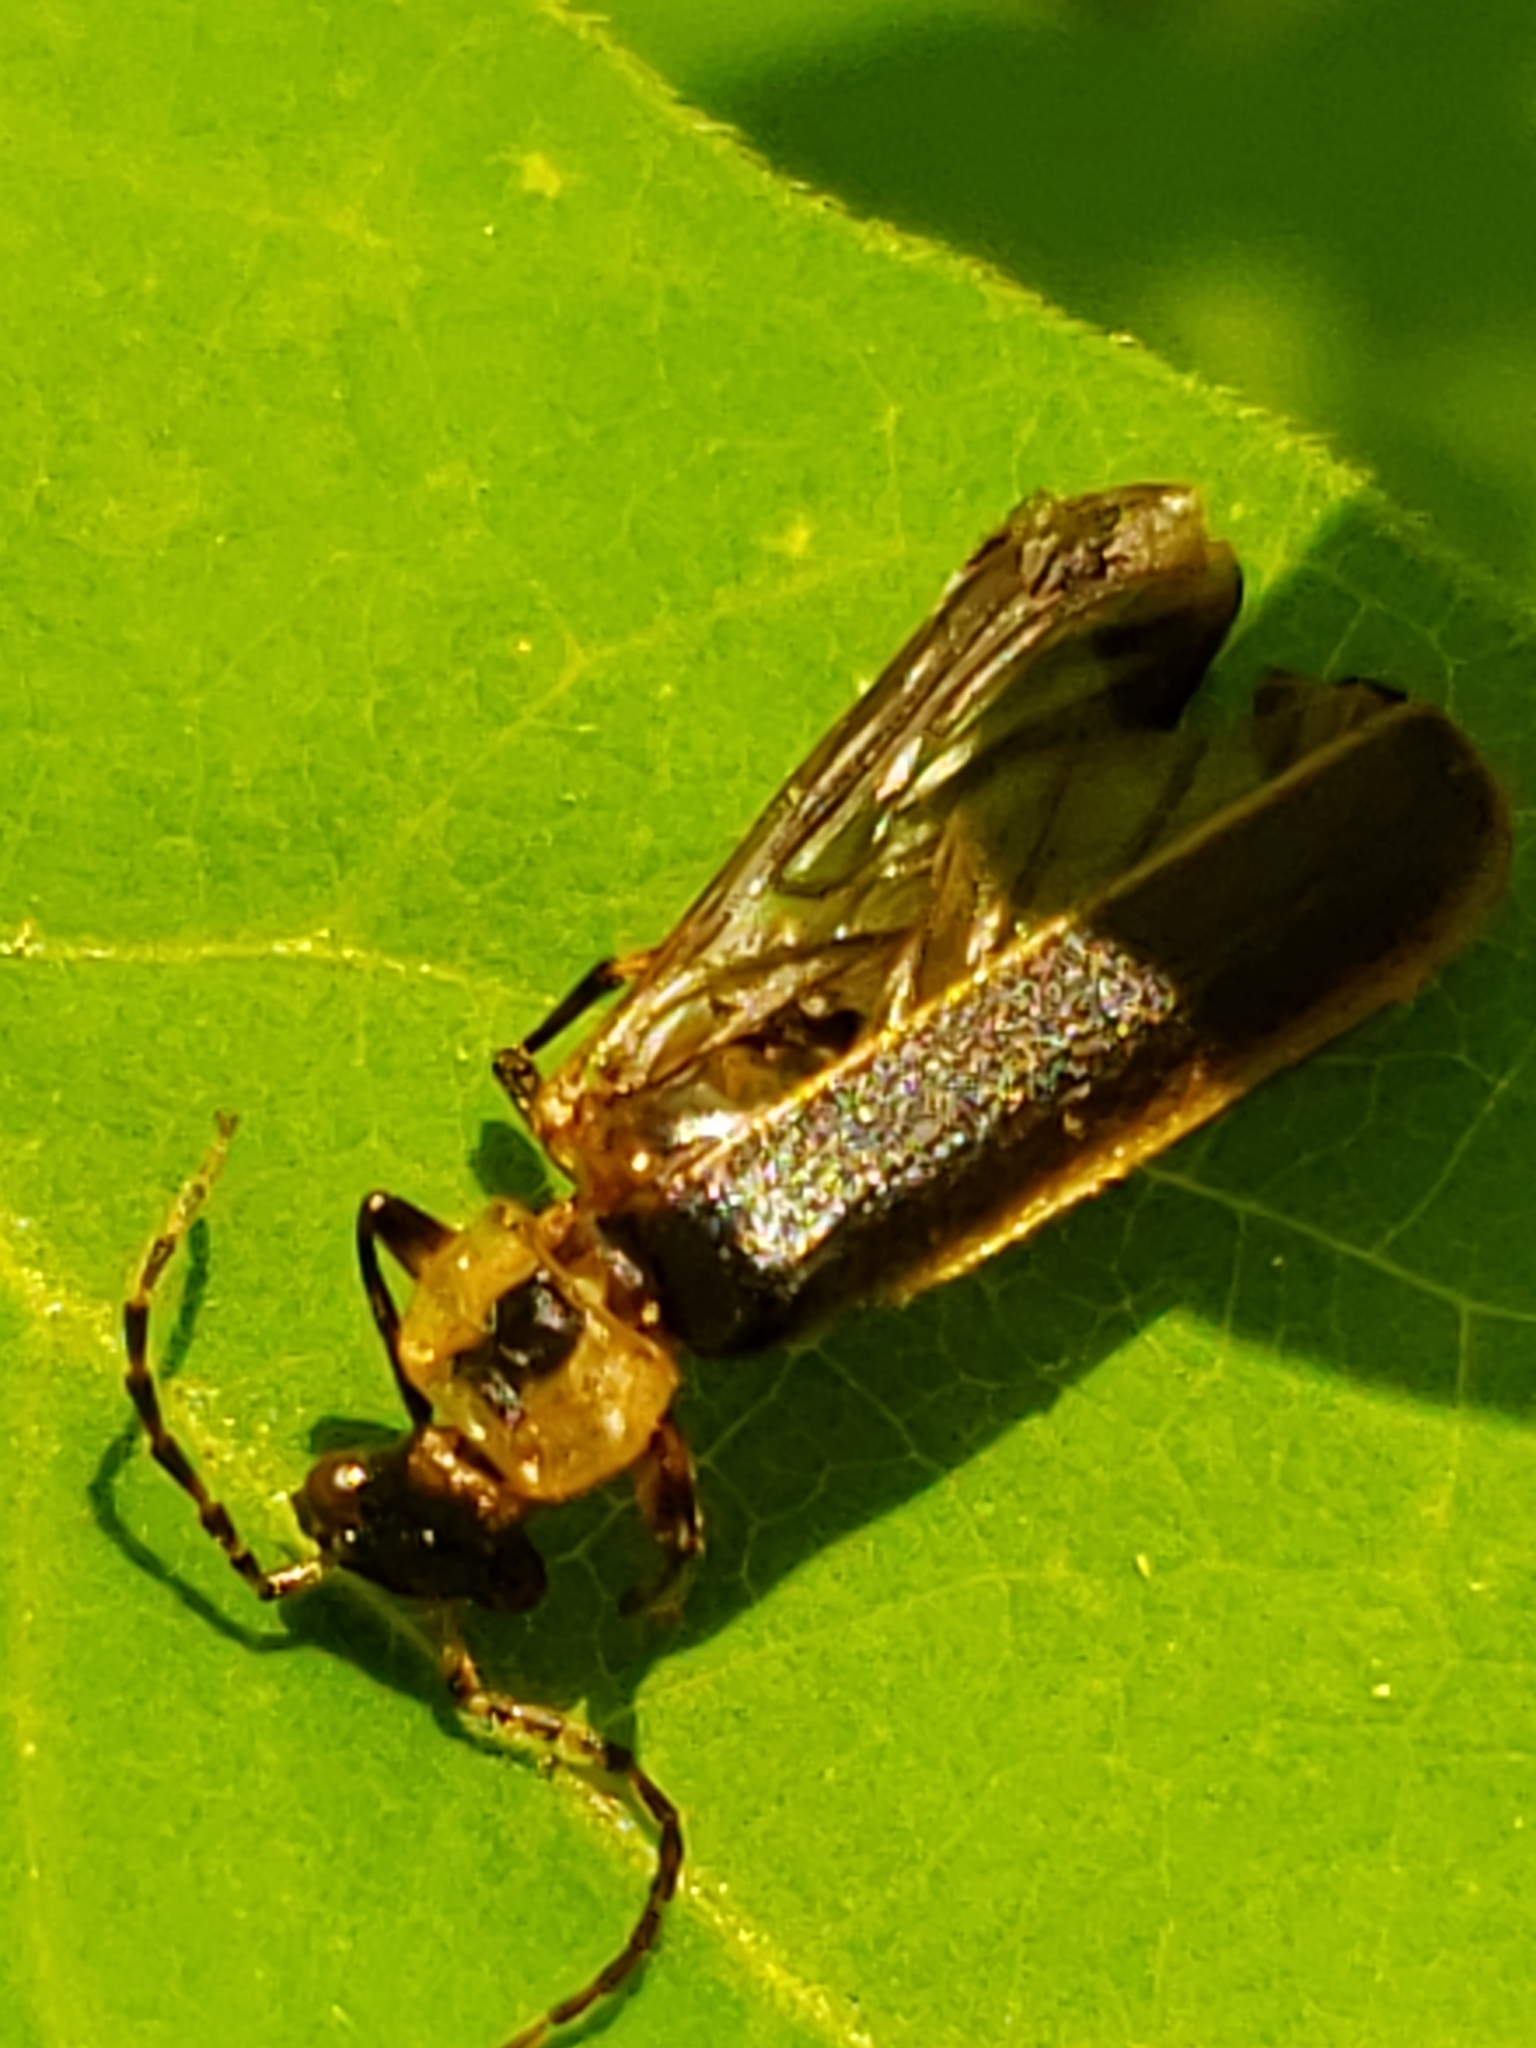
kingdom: Animalia
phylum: Arthropoda
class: Insecta
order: Coleoptera
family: Cantharidae
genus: Podabrus
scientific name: Podabrus basilaris
